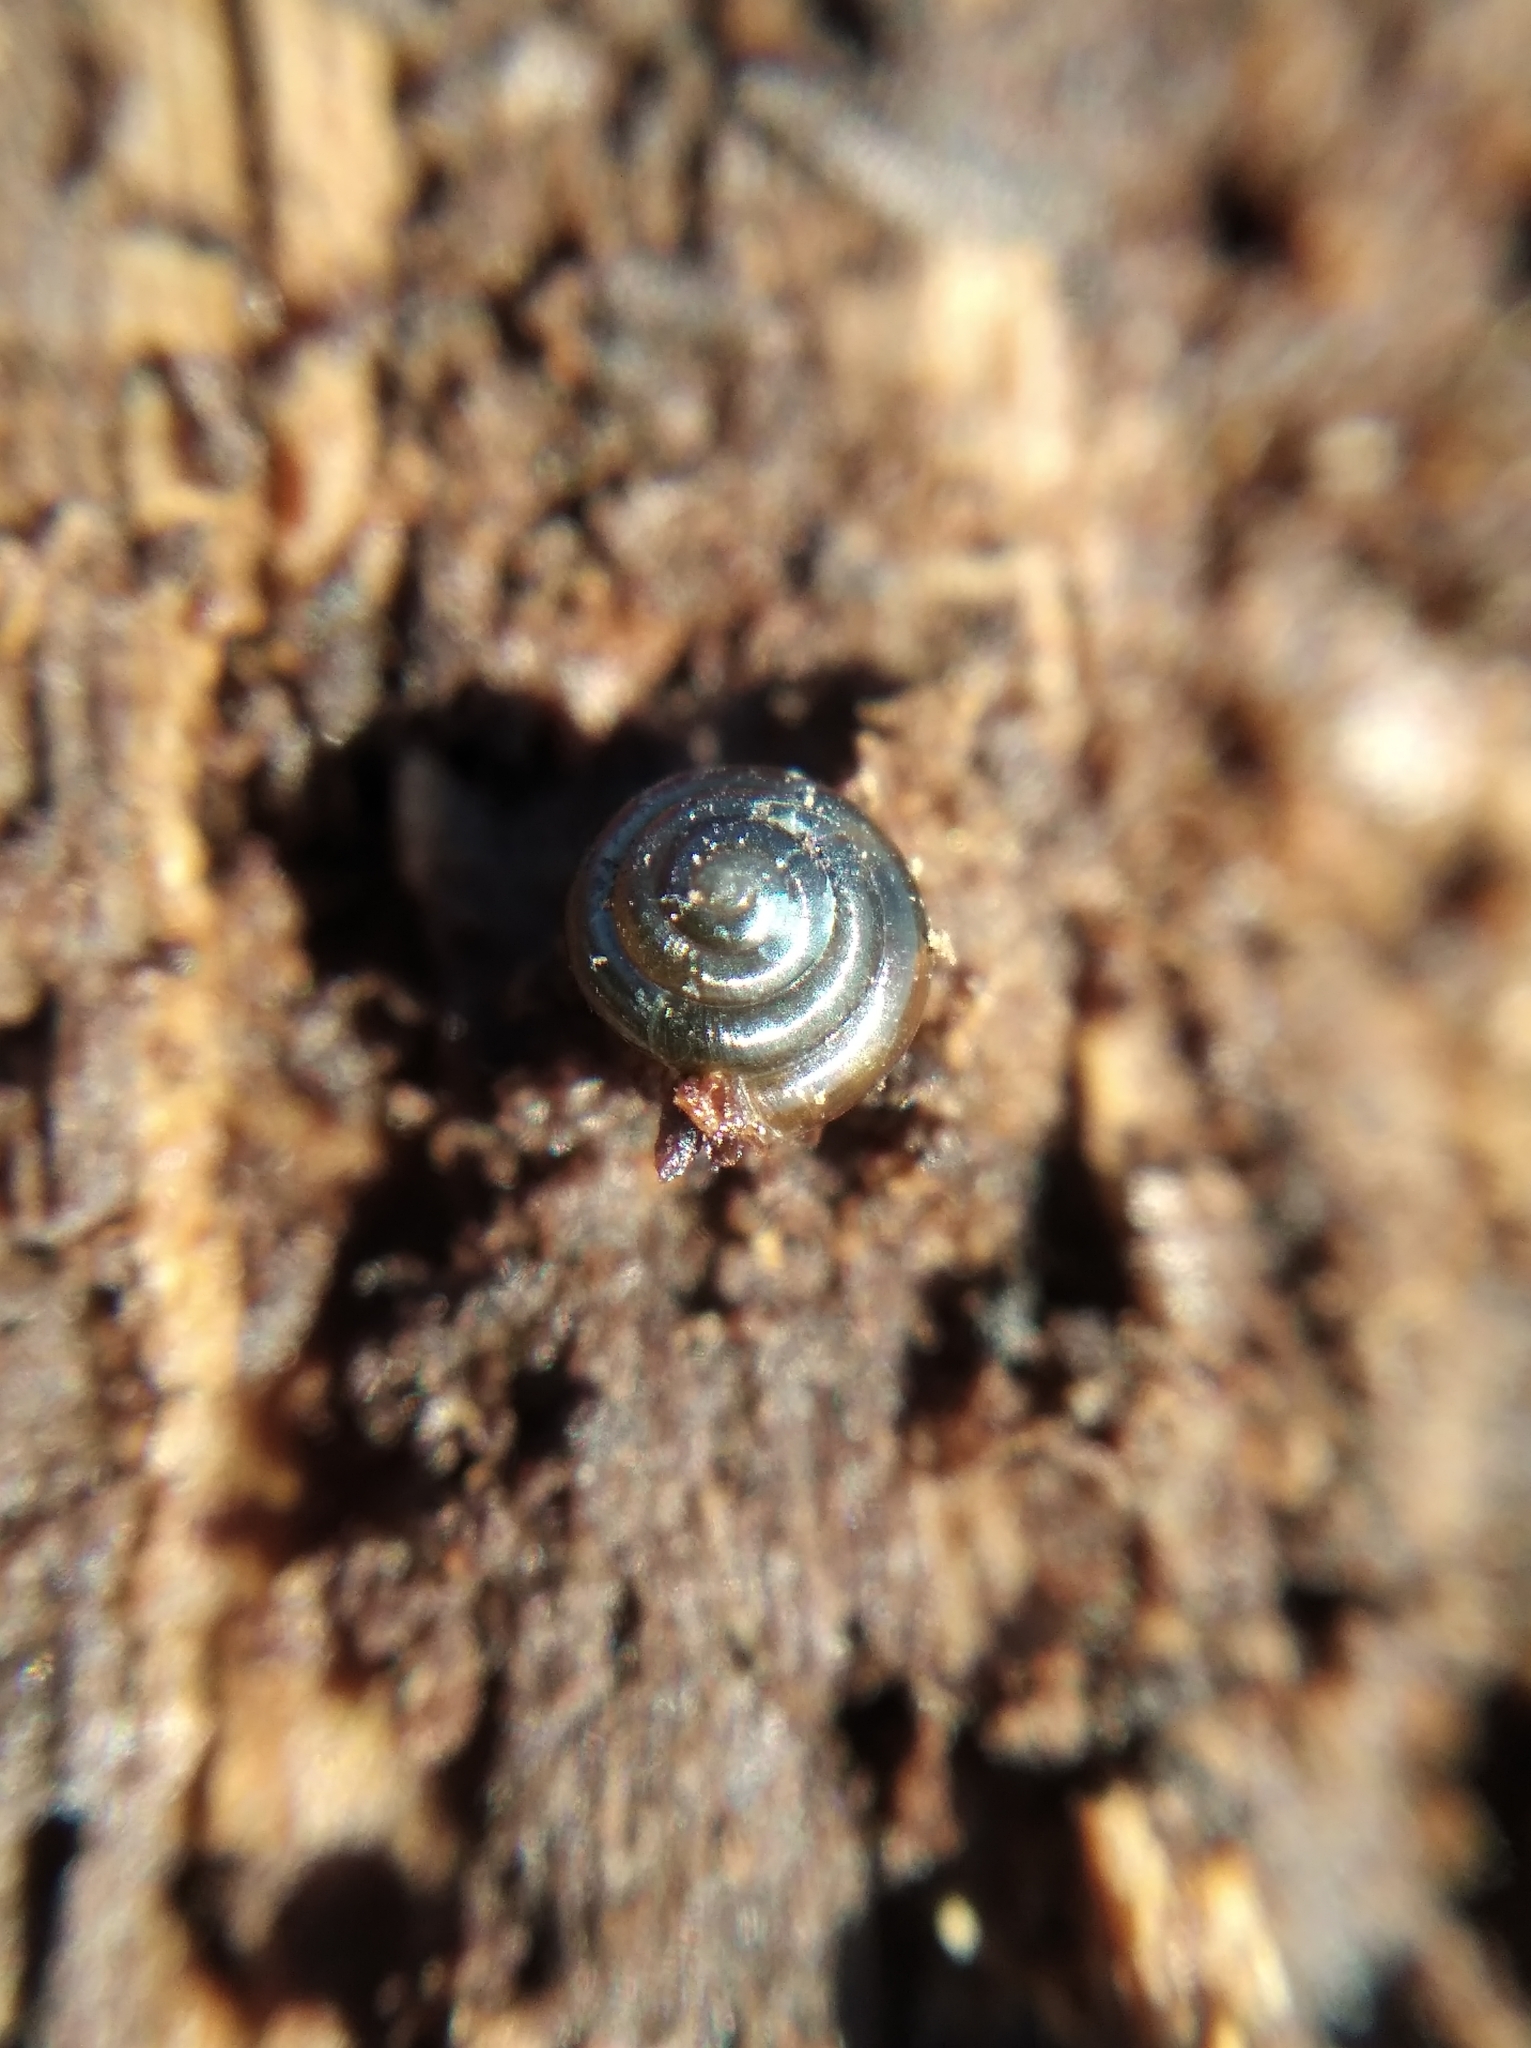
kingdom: Animalia
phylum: Mollusca
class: Gastropoda
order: Stylommatophora
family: Euconulidae
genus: Euconulus
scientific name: Euconulus fulvus
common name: Tawny glass snail
